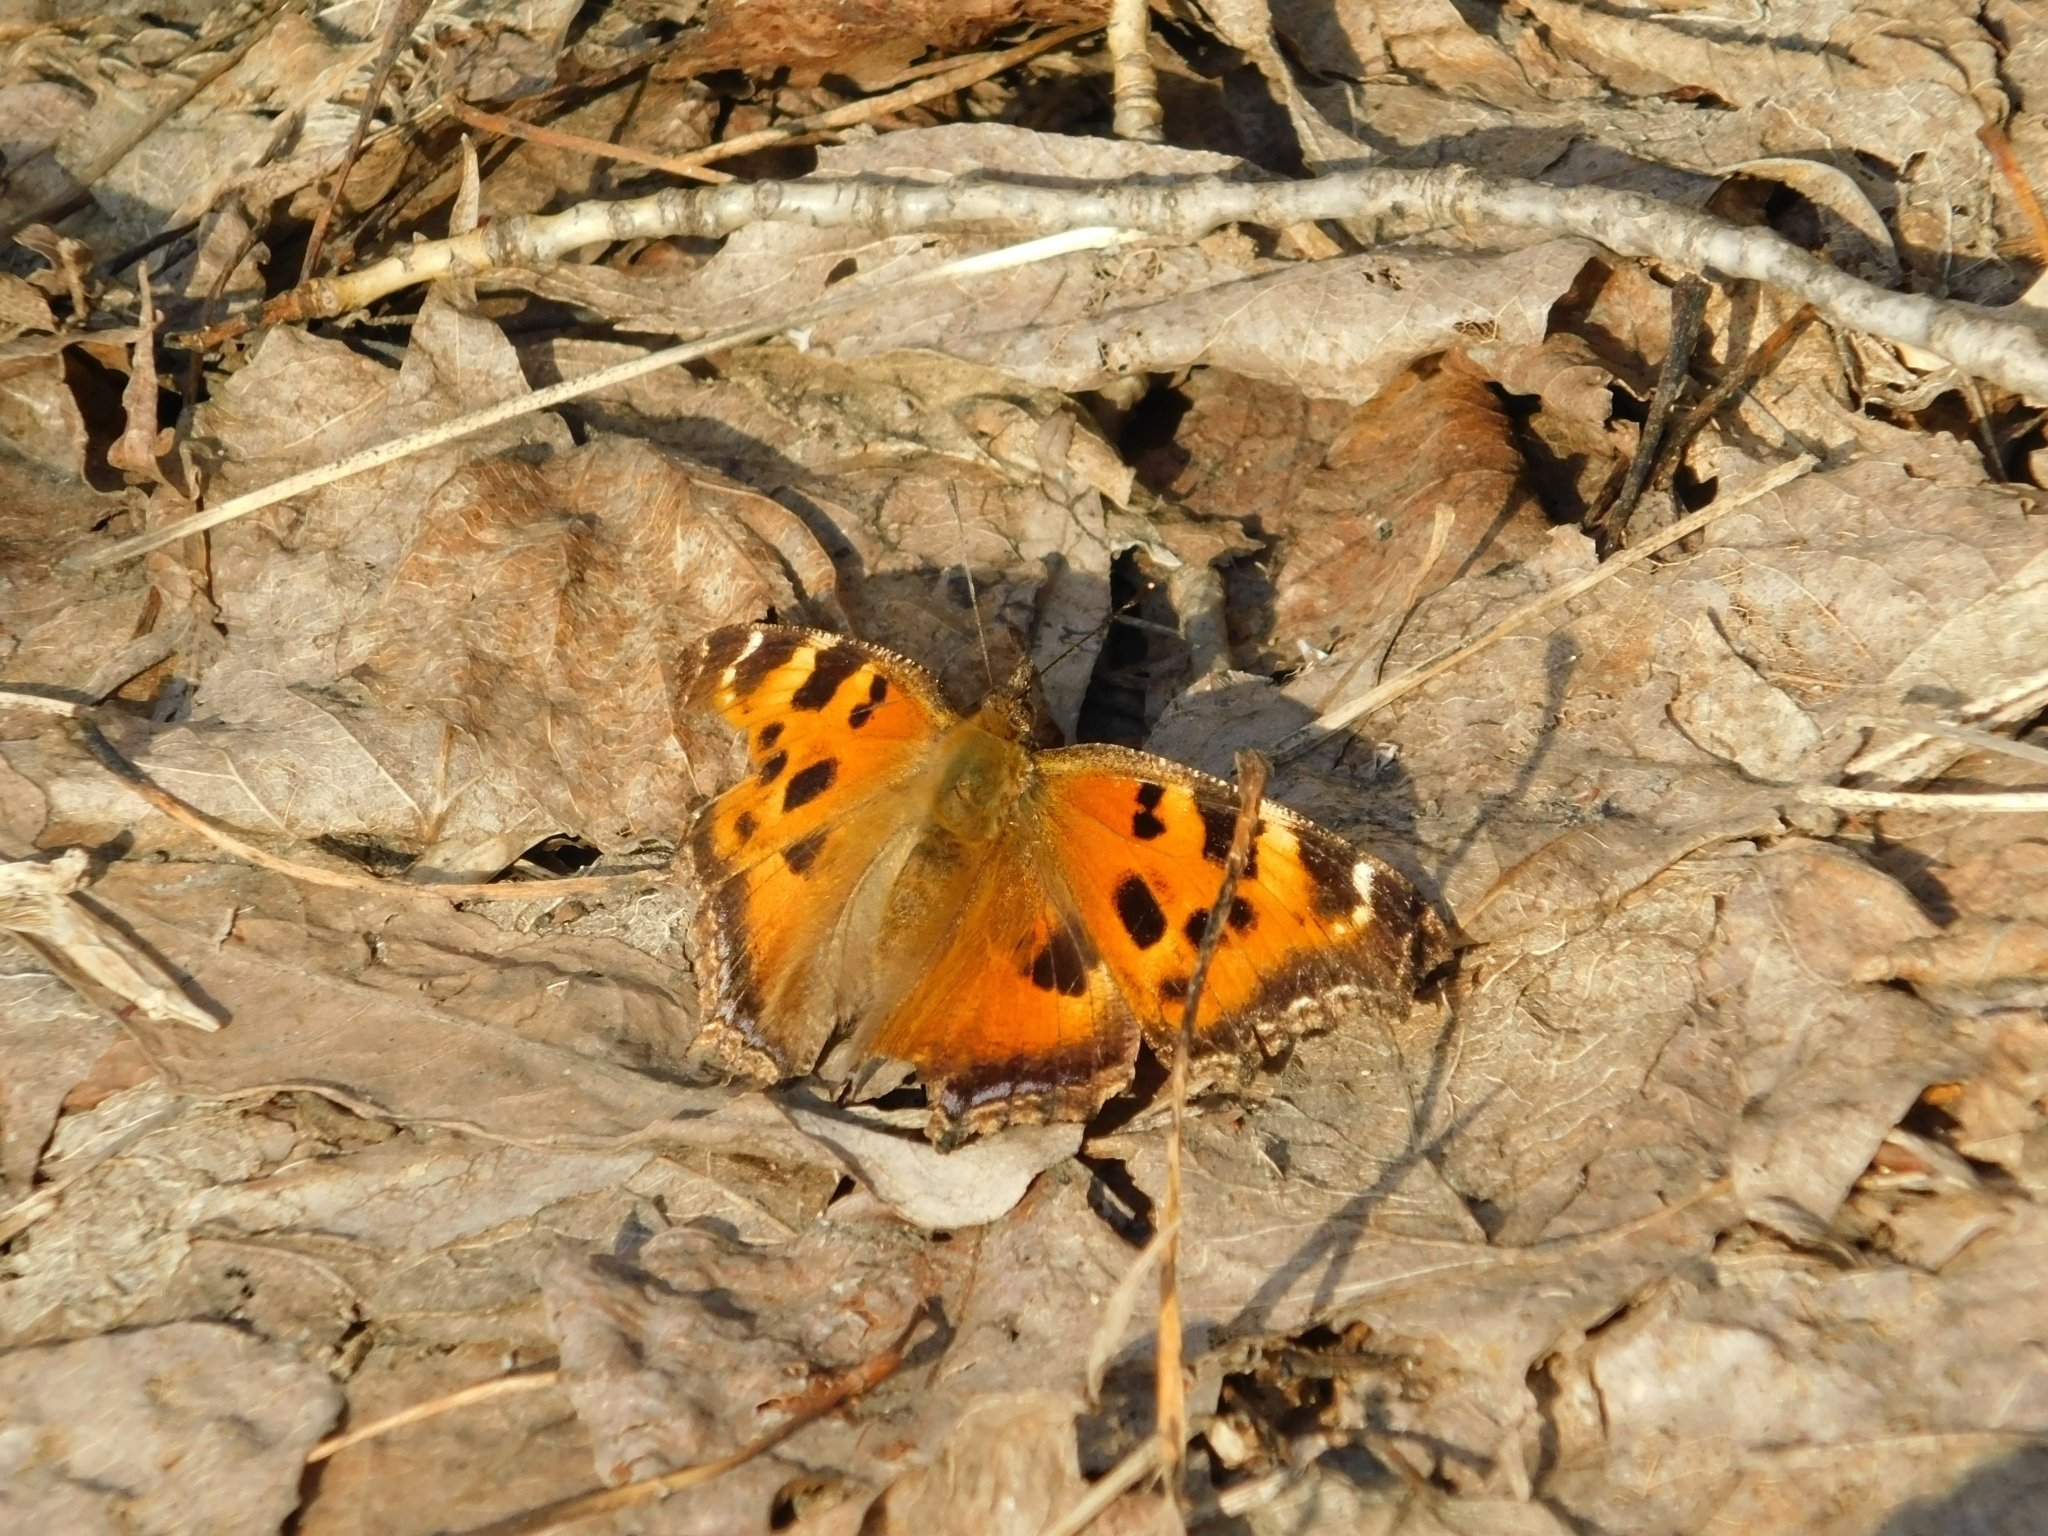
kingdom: Animalia
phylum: Arthropoda
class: Insecta
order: Lepidoptera
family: Nymphalidae
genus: Nymphalis
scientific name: Nymphalis xanthomelas
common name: Scarce tortoiseshell
